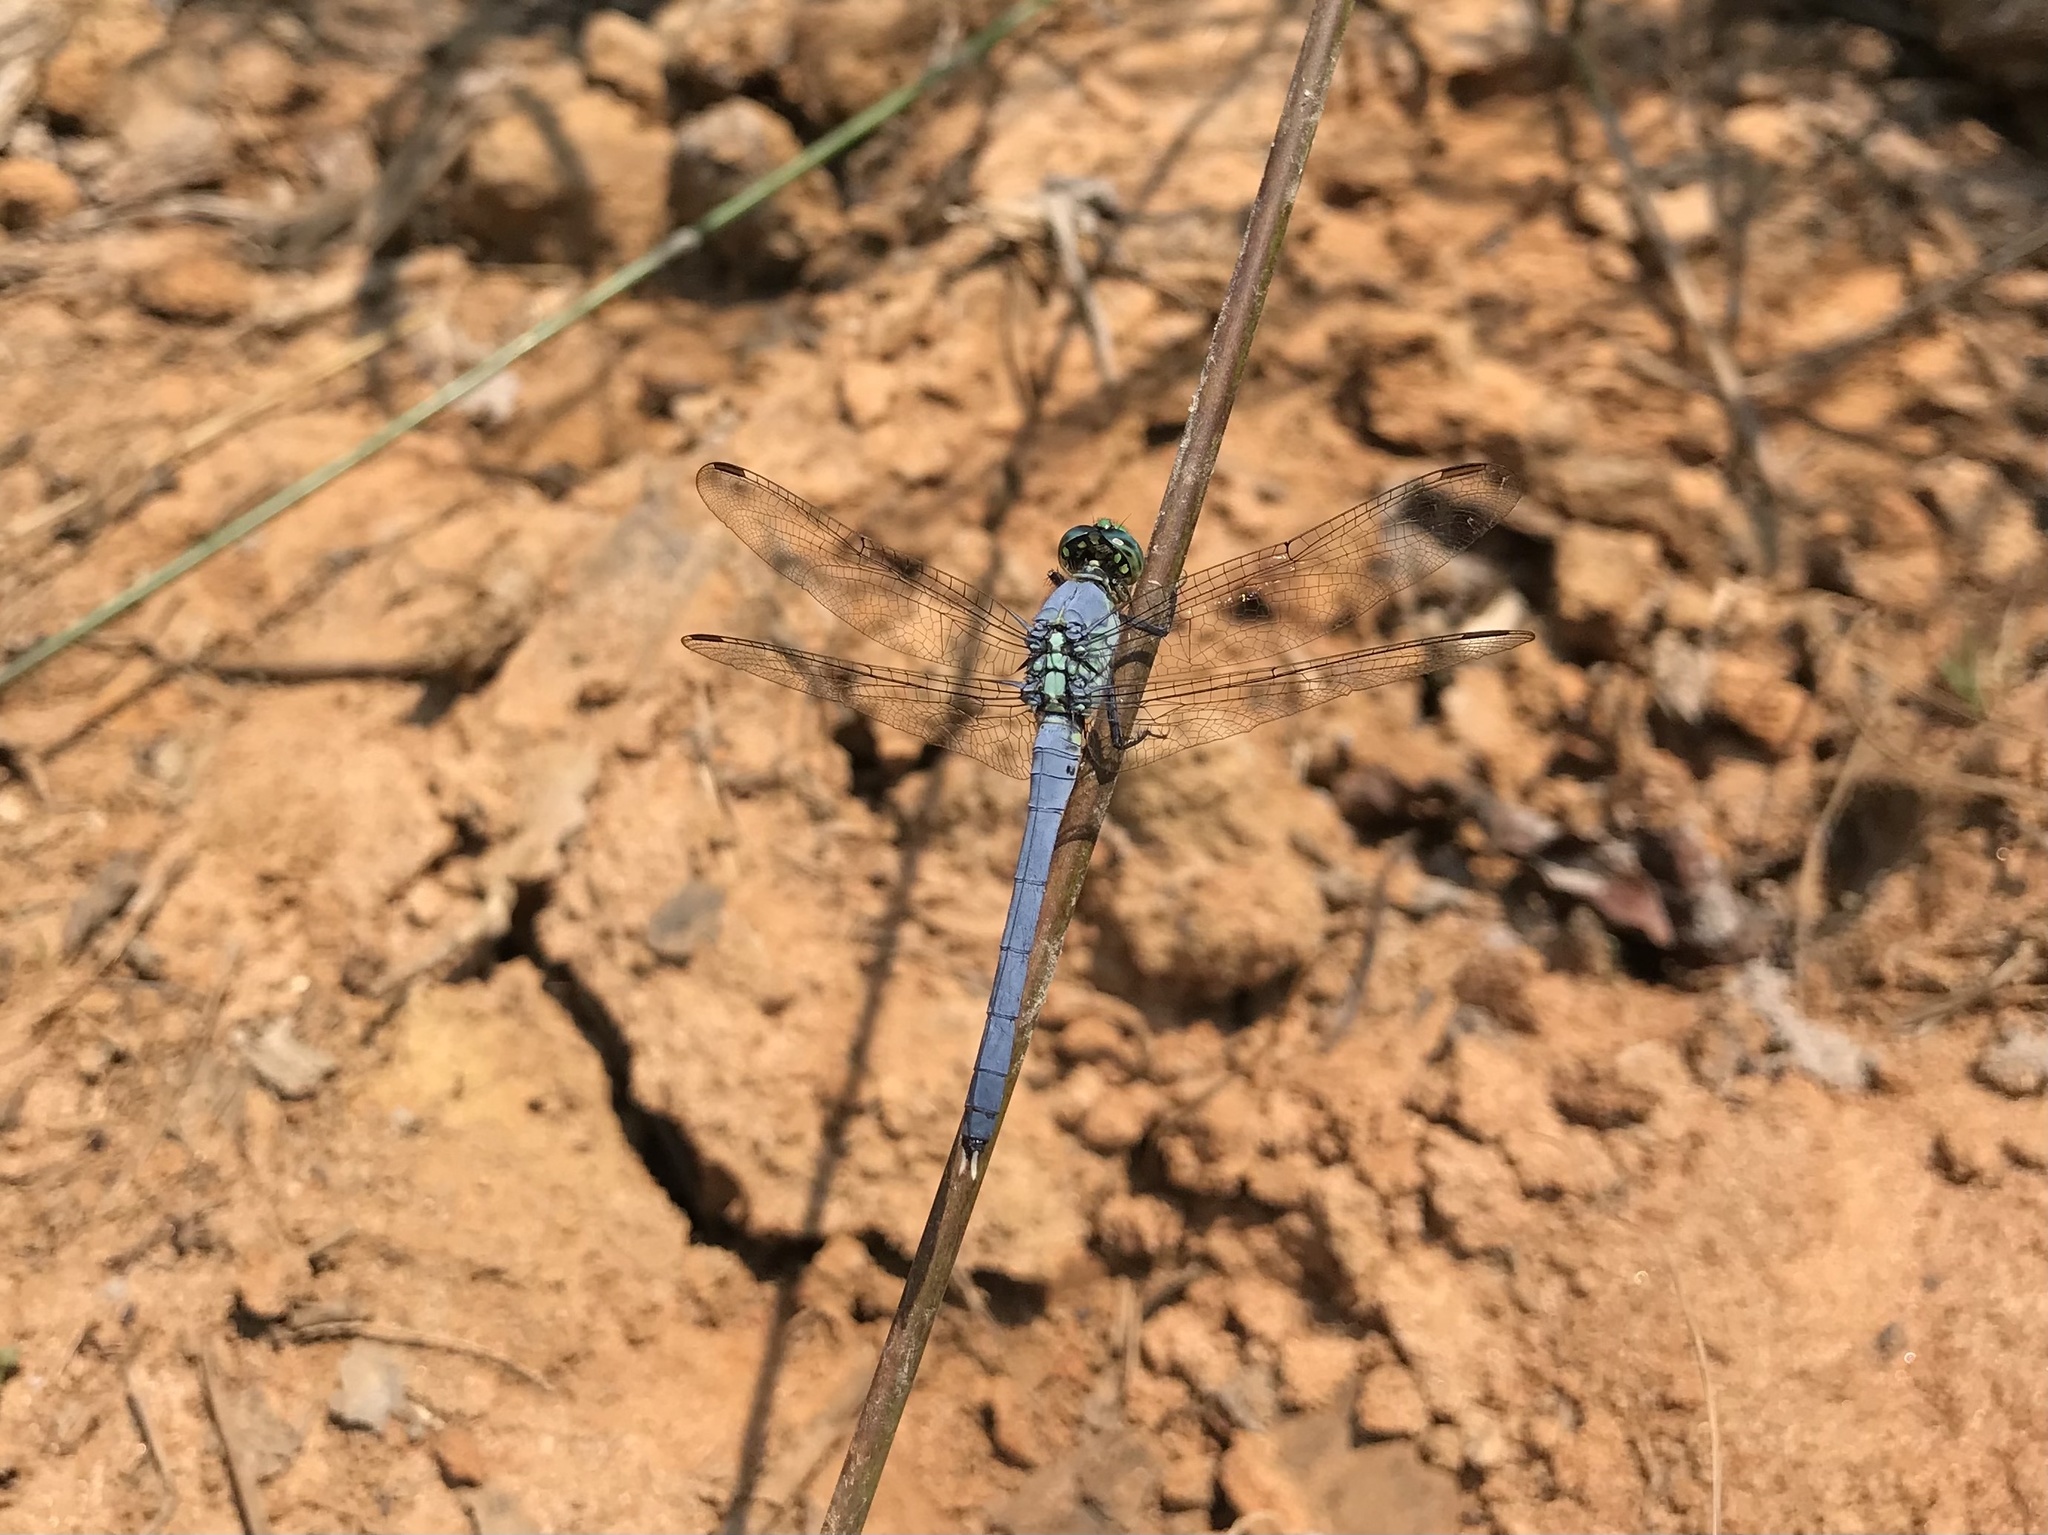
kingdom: Animalia
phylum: Arthropoda
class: Insecta
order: Odonata
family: Libellulidae
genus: Erythemis
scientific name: Erythemis simplicicollis
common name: Eastern pondhawk
